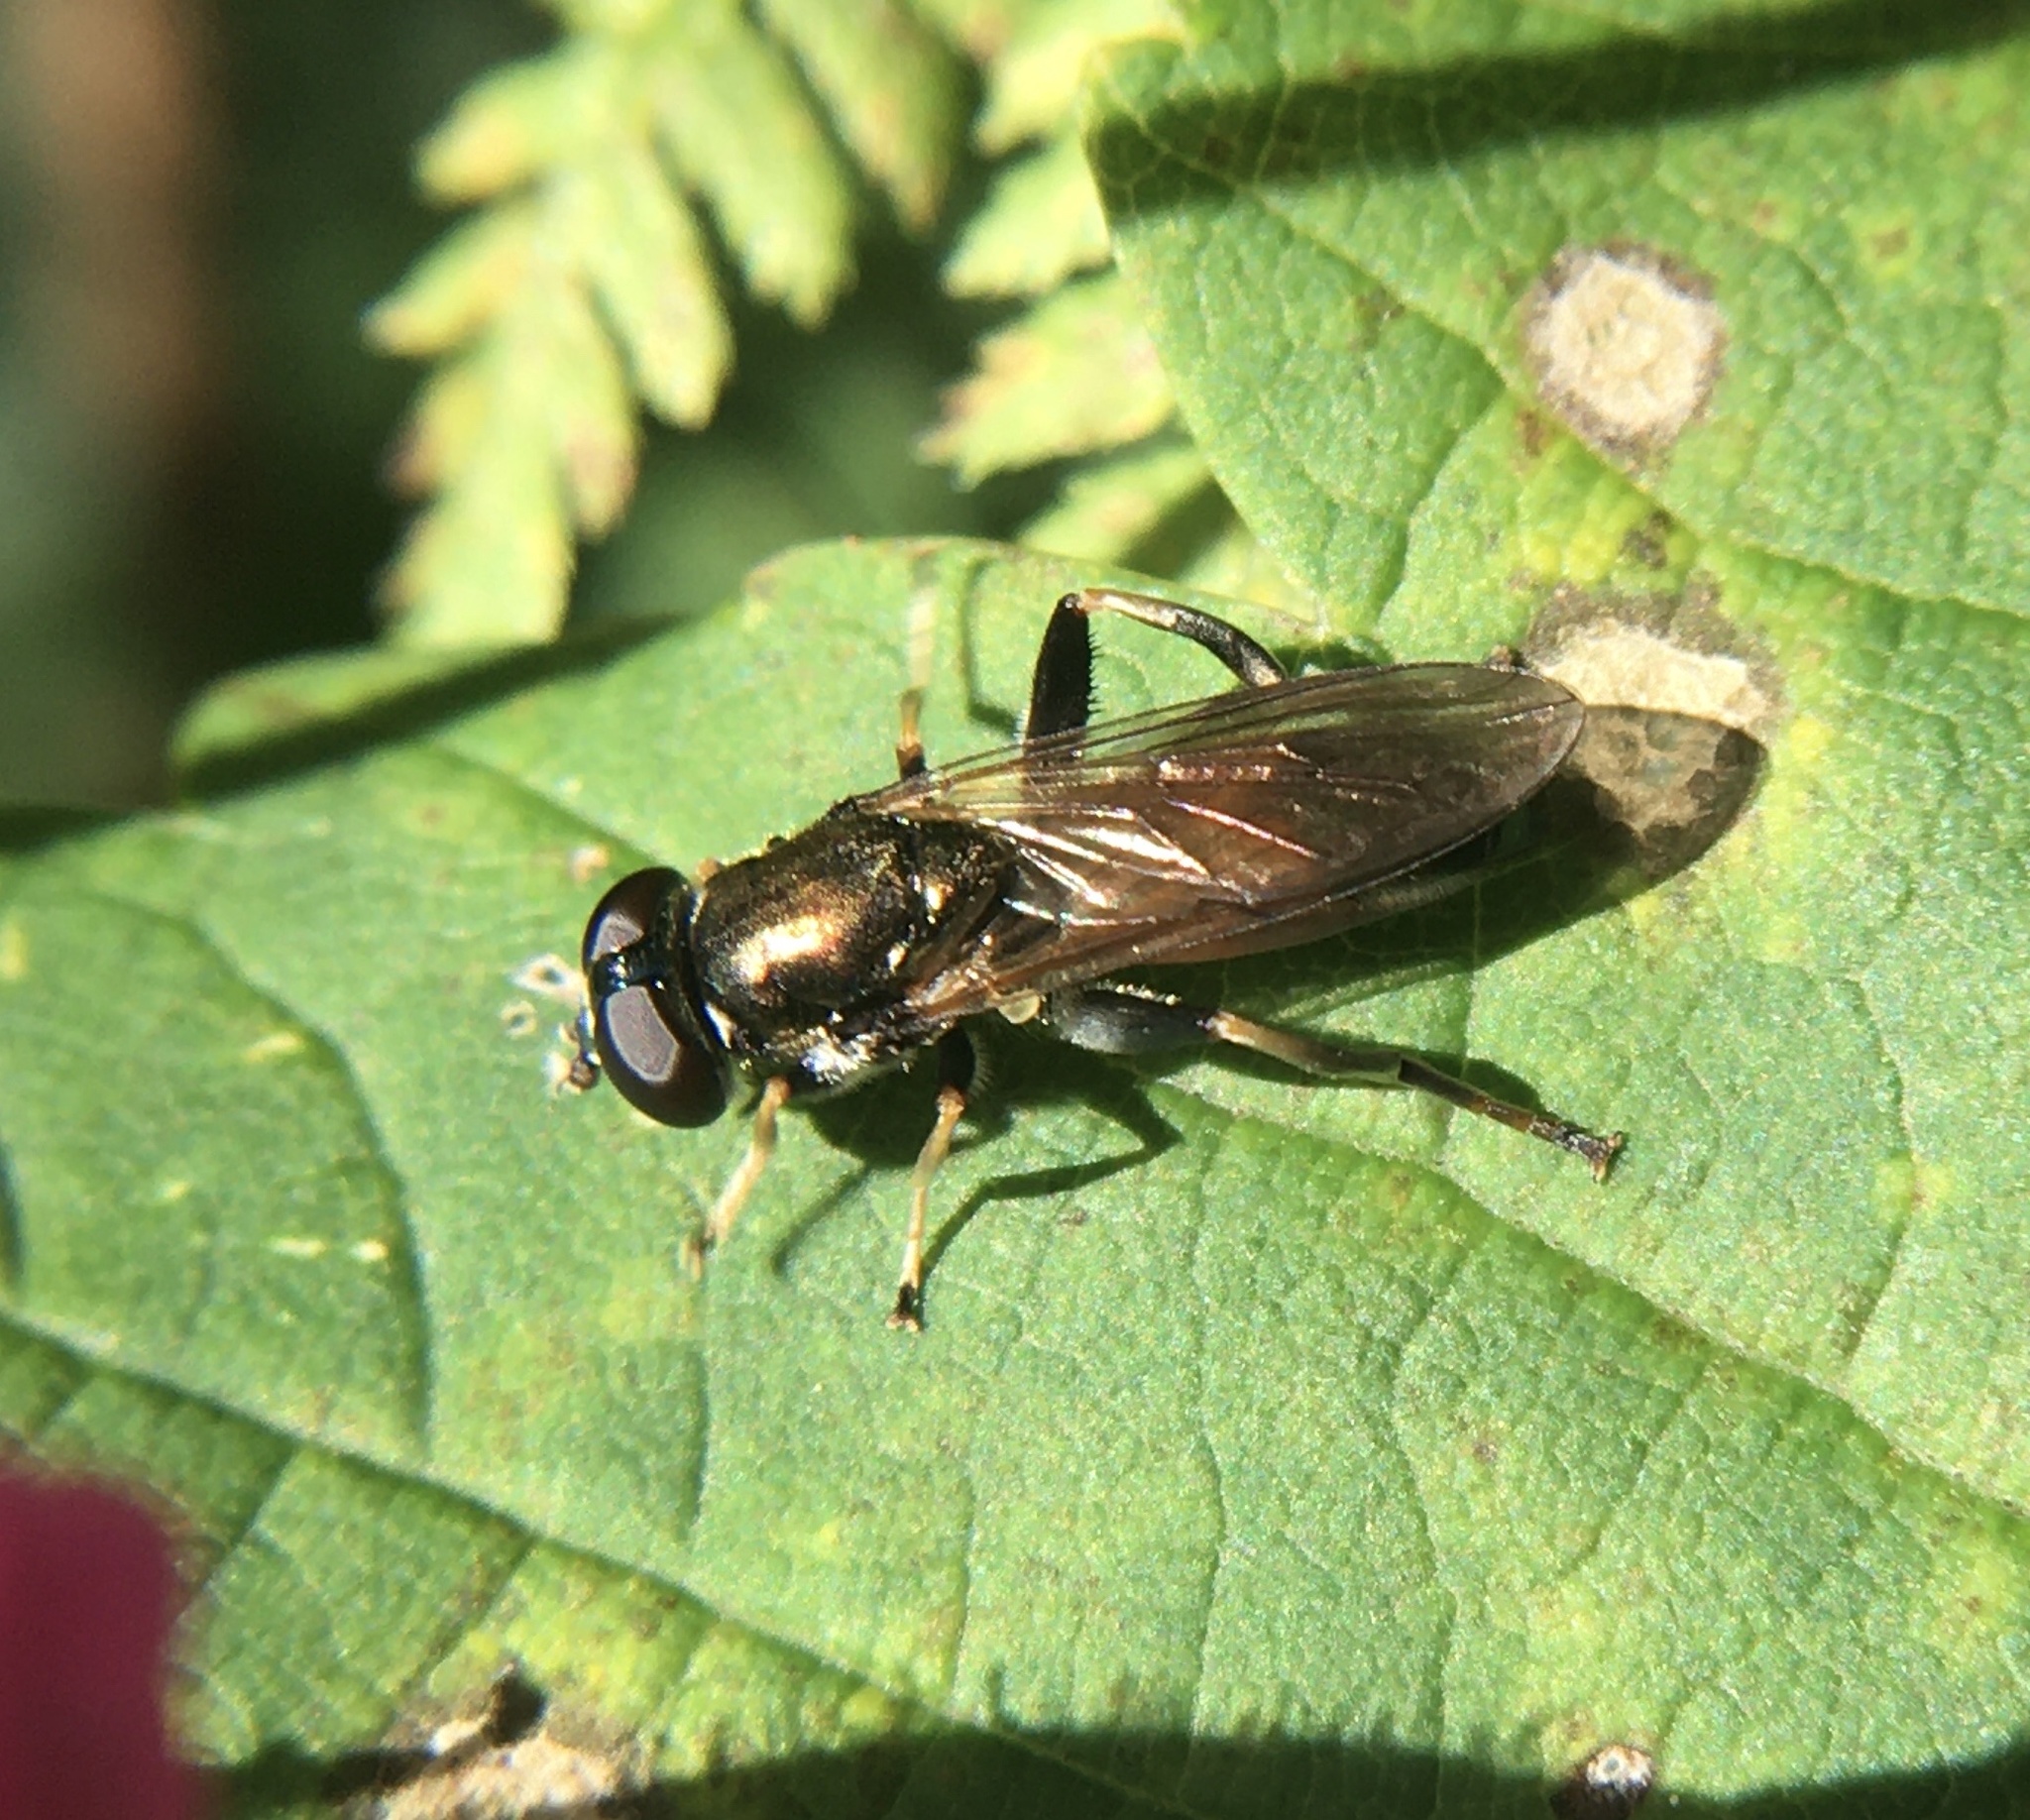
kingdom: Animalia
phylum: Arthropoda
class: Insecta
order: Diptera
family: Syrphidae
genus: Xylota
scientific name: Xylota segnis
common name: Brown-toed forest fly
